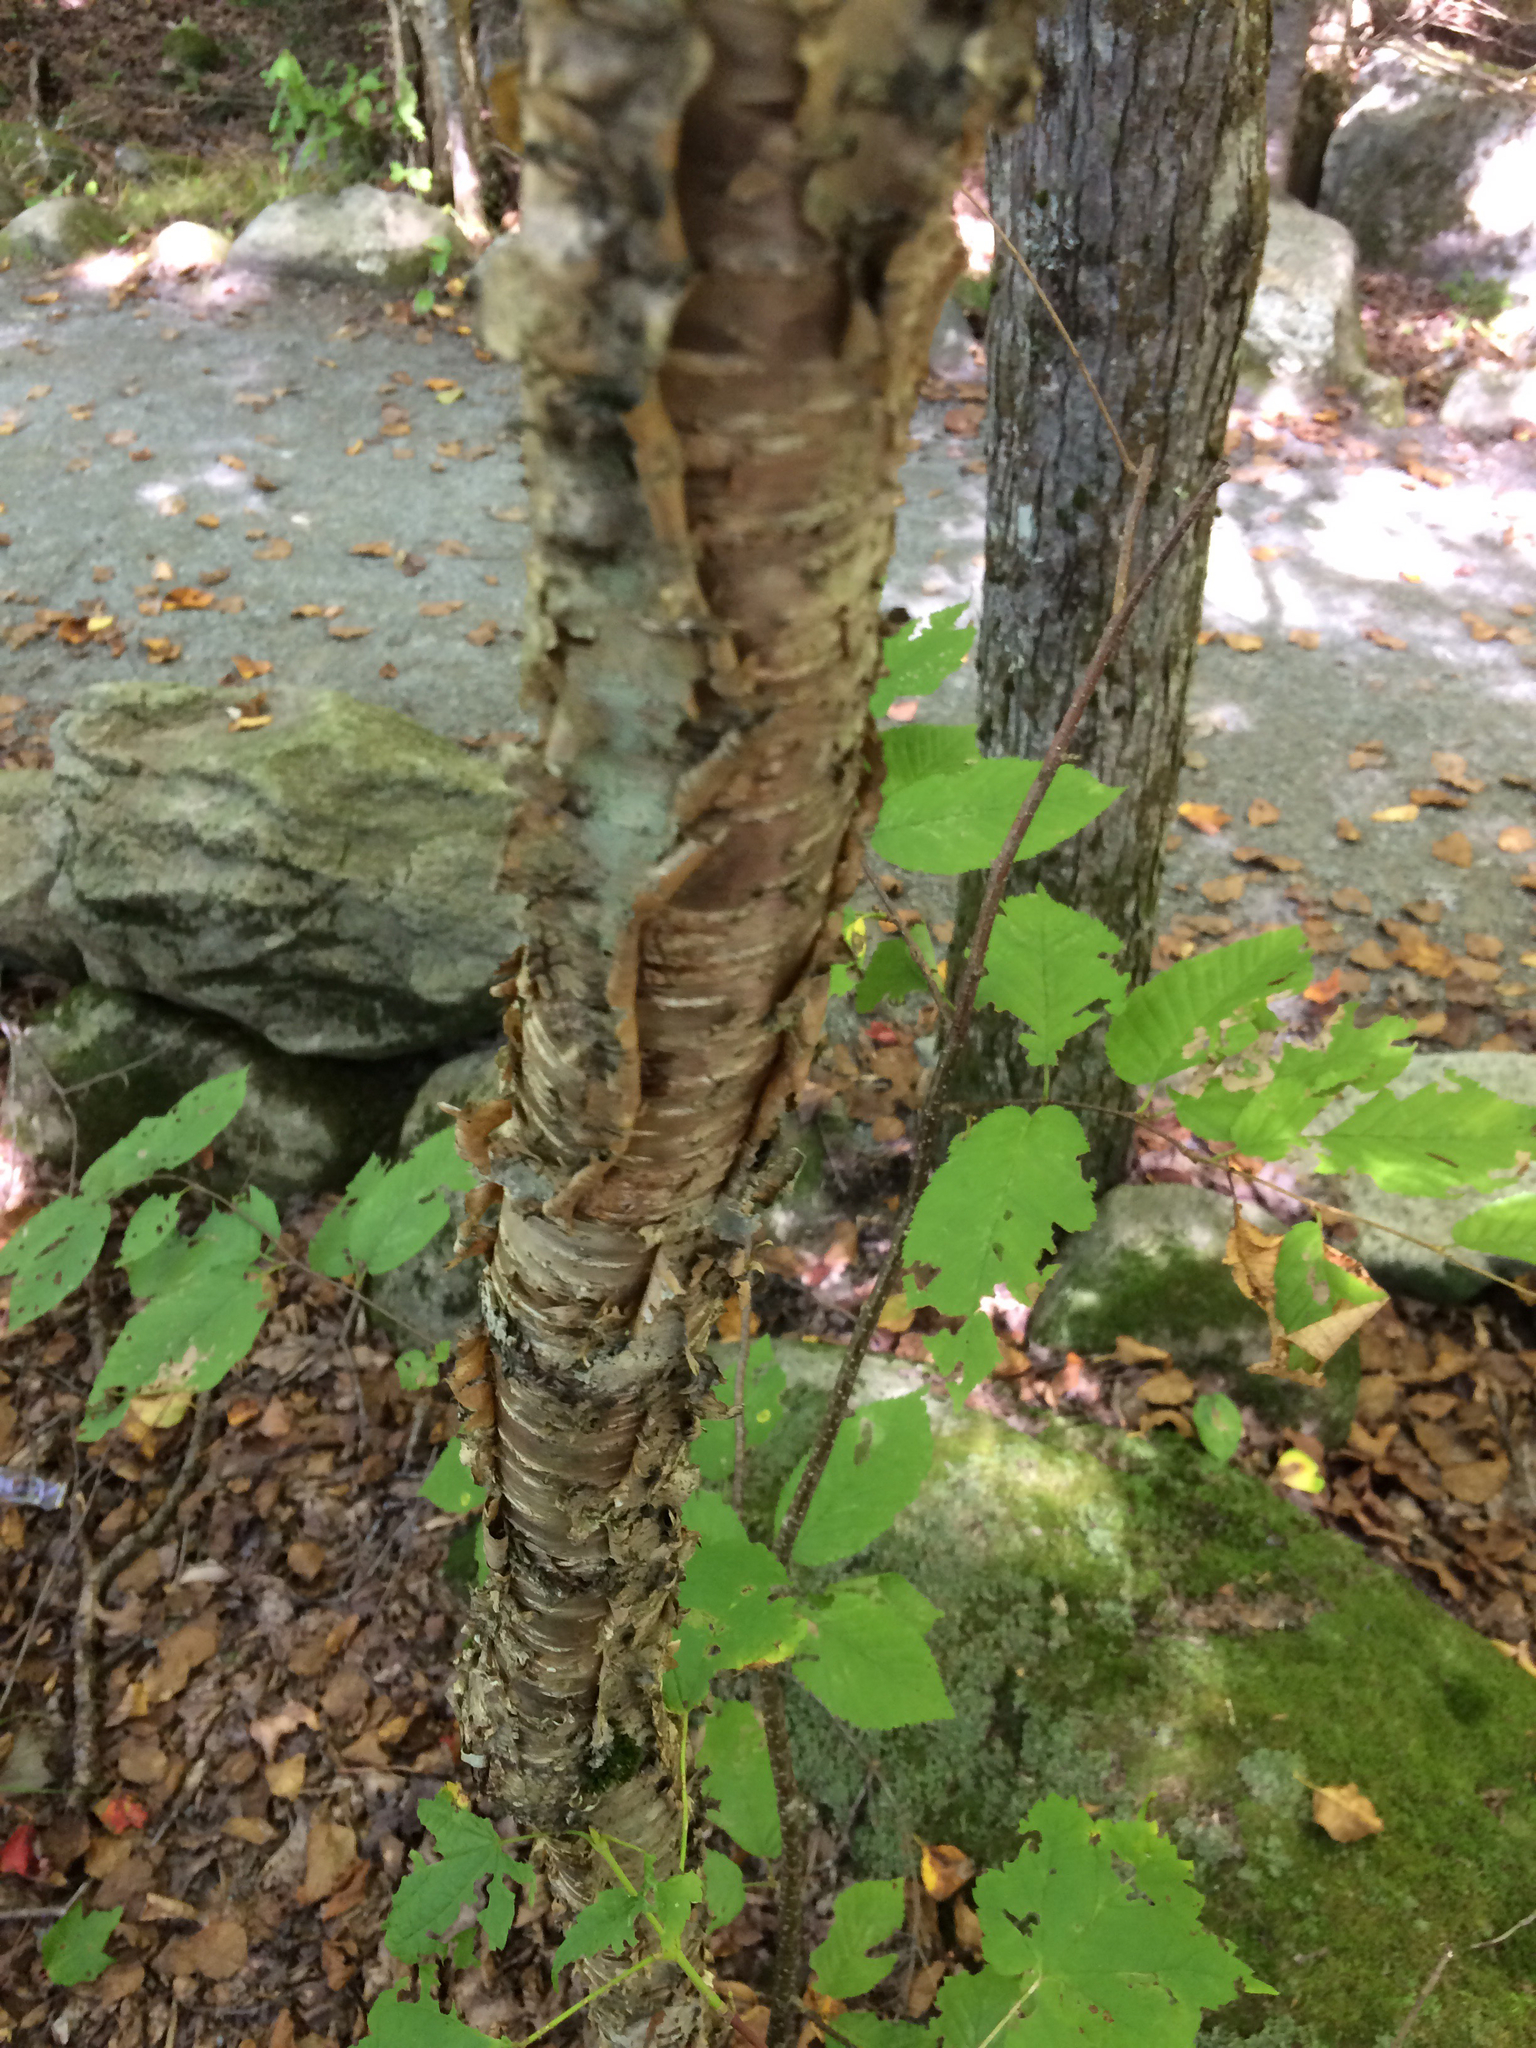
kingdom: Plantae
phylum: Tracheophyta
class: Magnoliopsida
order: Fagales
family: Betulaceae
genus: Betula
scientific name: Betula alleghaniensis
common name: Yellow birch
